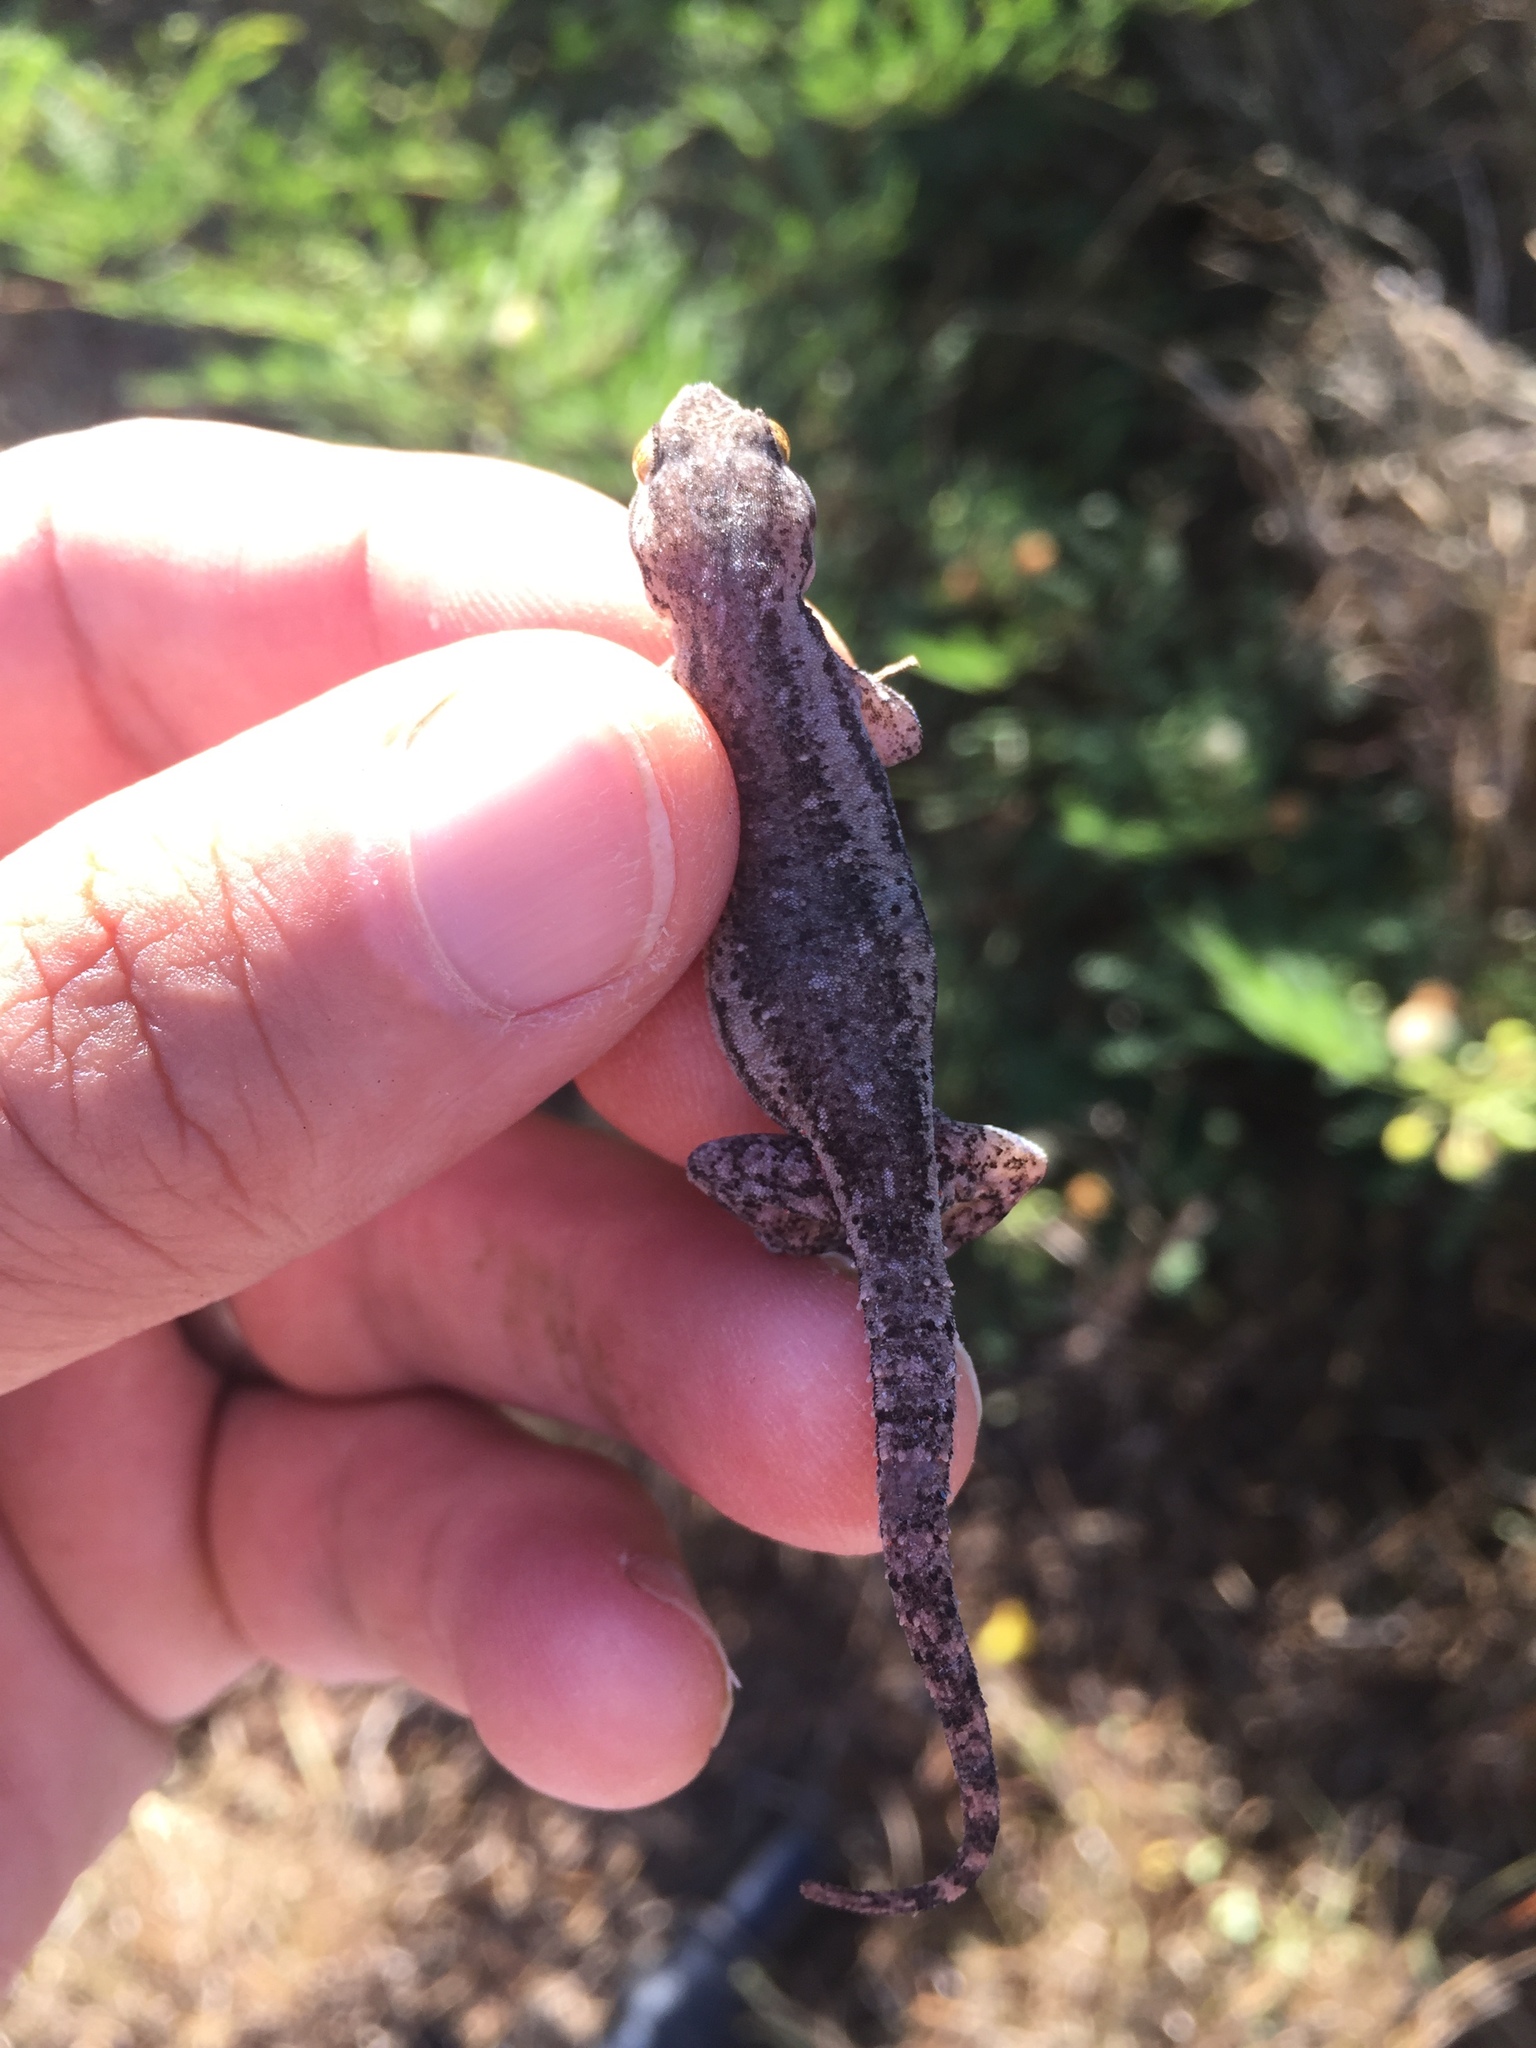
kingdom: Animalia
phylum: Chordata
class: Squamata
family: Gekkonidae
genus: Hemidactylus
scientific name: Hemidactylus frenatus
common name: Common house gecko
